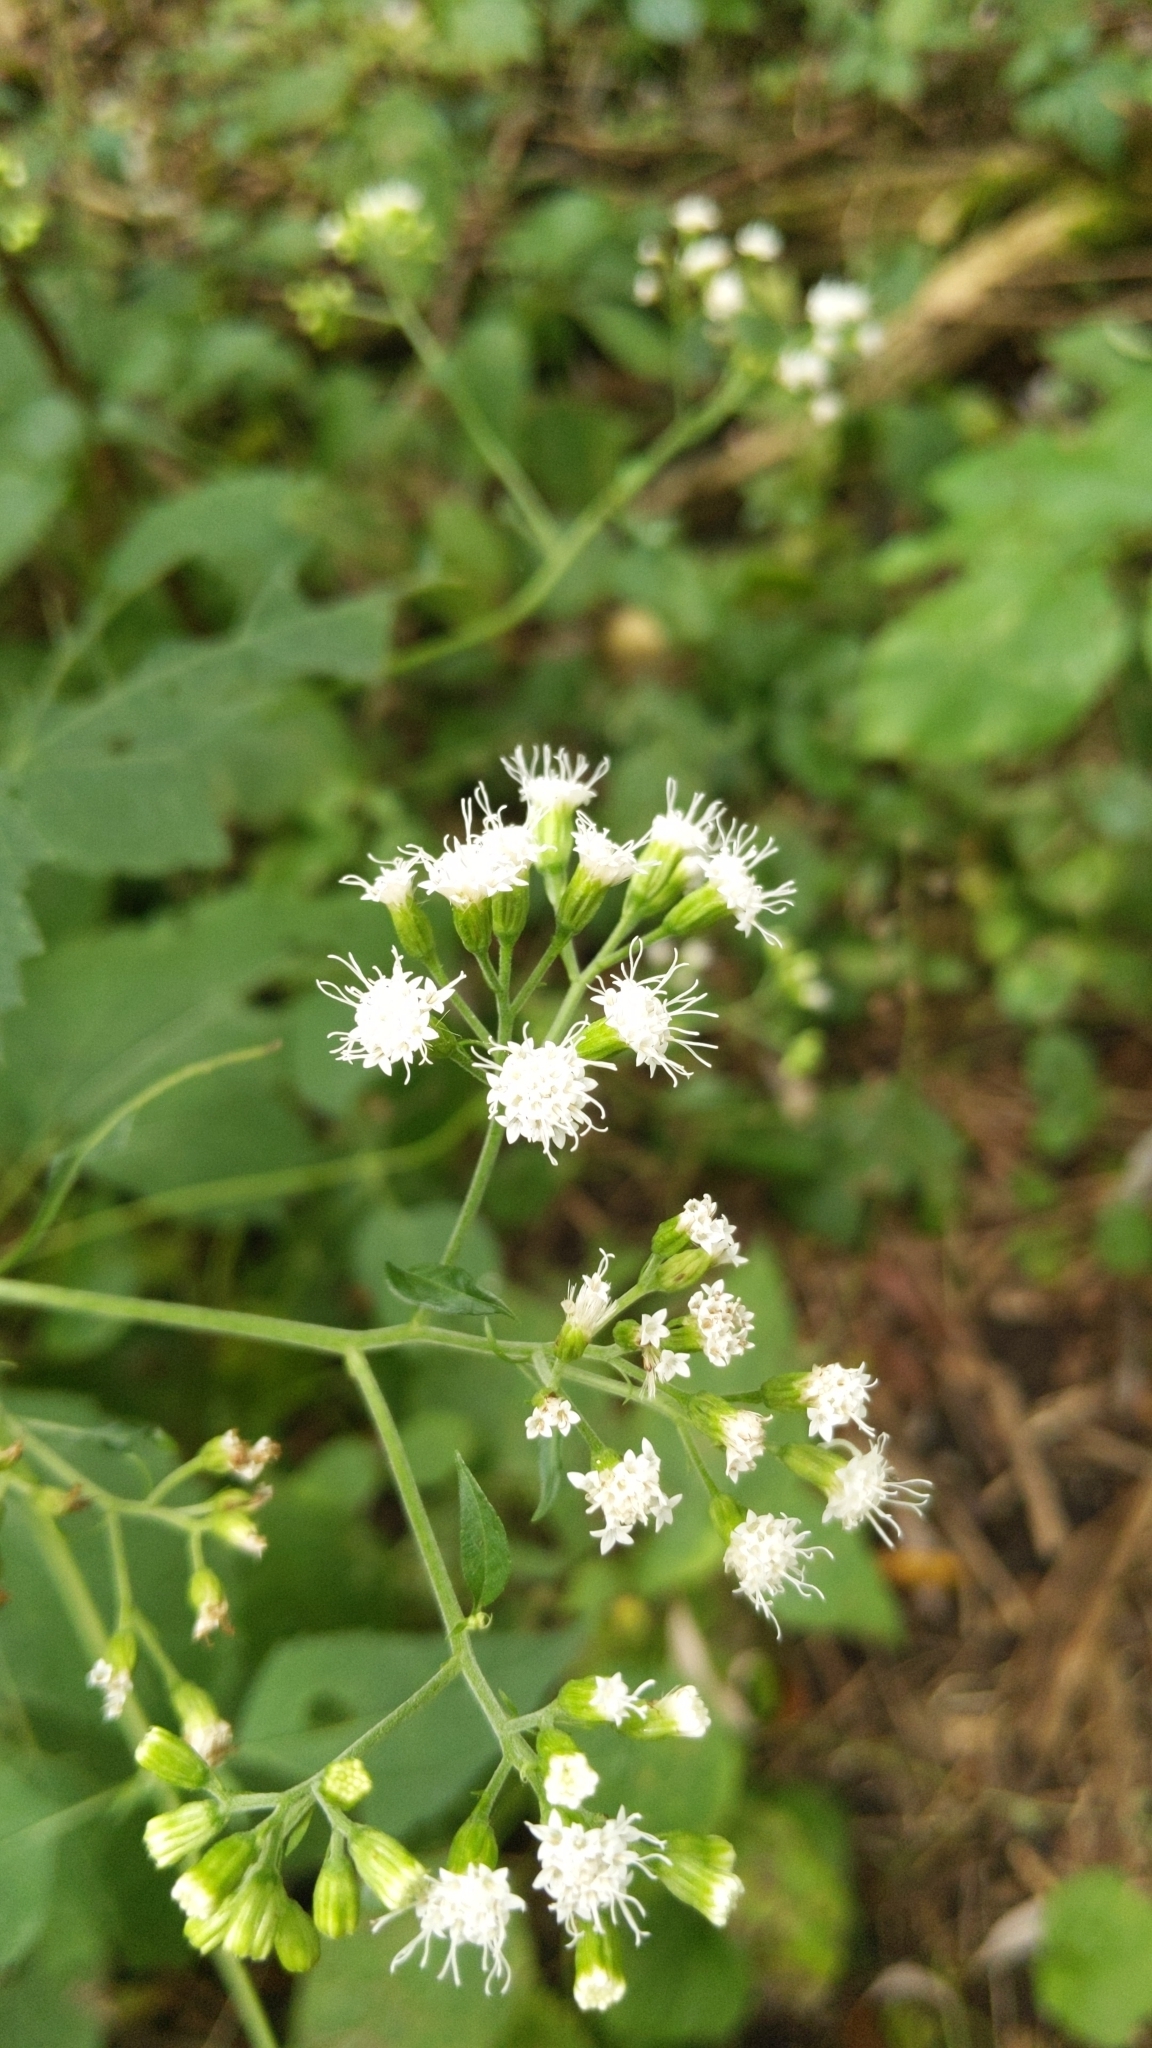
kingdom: Plantae
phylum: Tracheophyta
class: Magnoliopsida
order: Asterales
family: Asteraceae
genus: Ageratina
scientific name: Ageratina altissima
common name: White snakeroot
